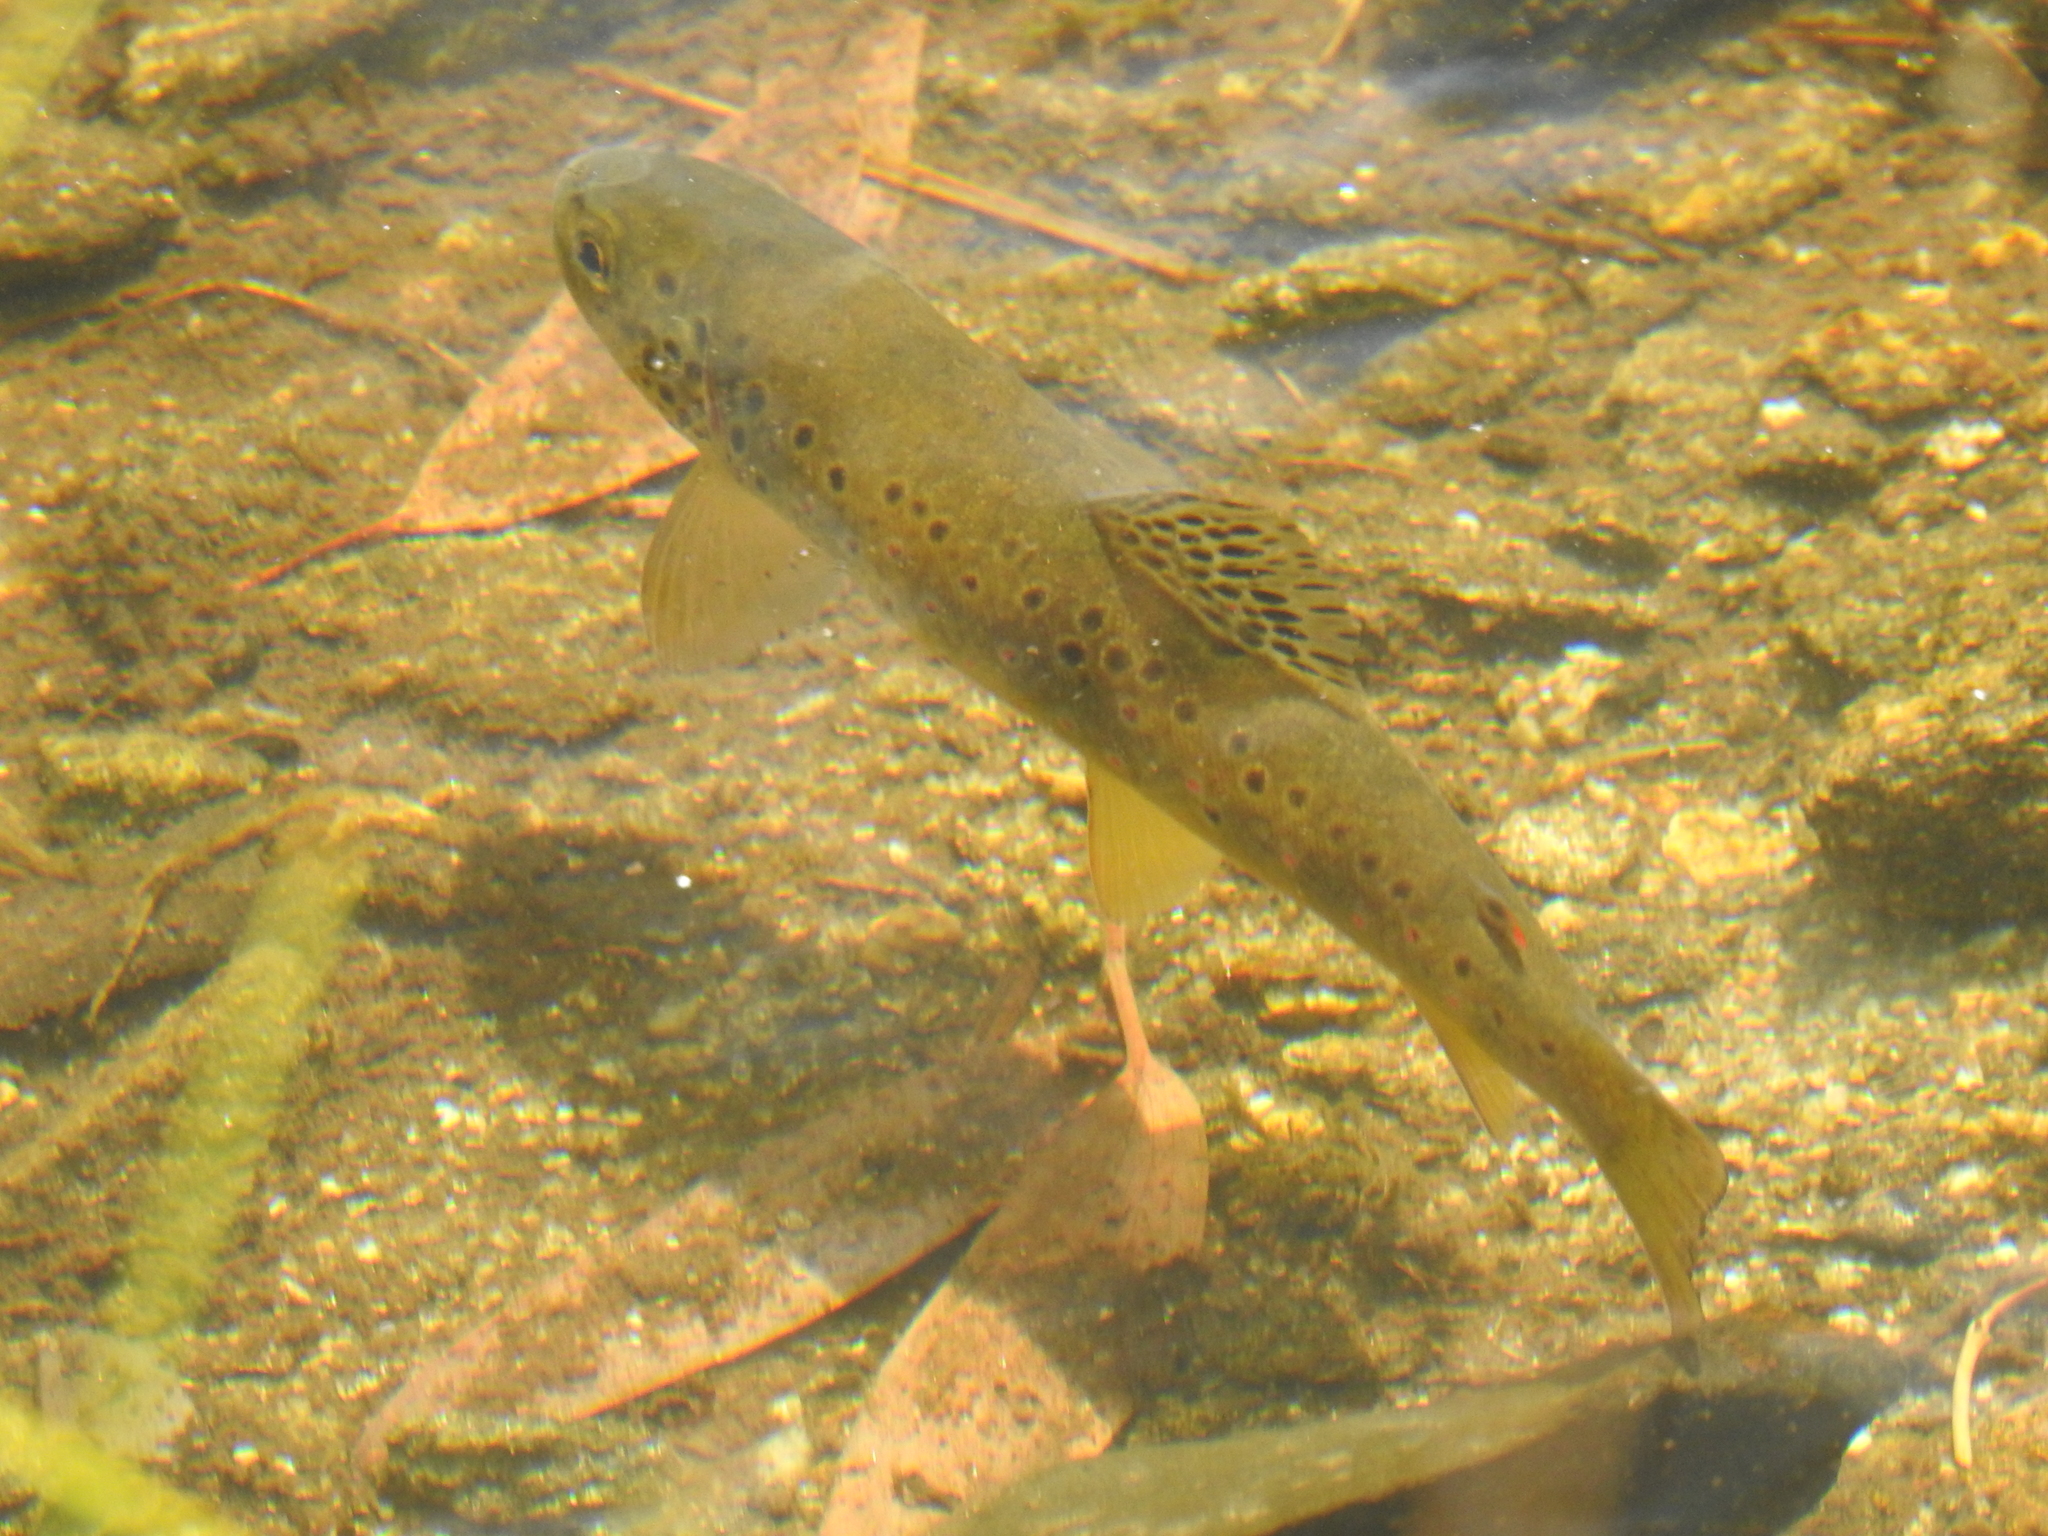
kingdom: Animalia
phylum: Chordata
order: Salmoniformes
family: Salmonidae
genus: Salmo
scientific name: Salmo trutta
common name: Brown trout
